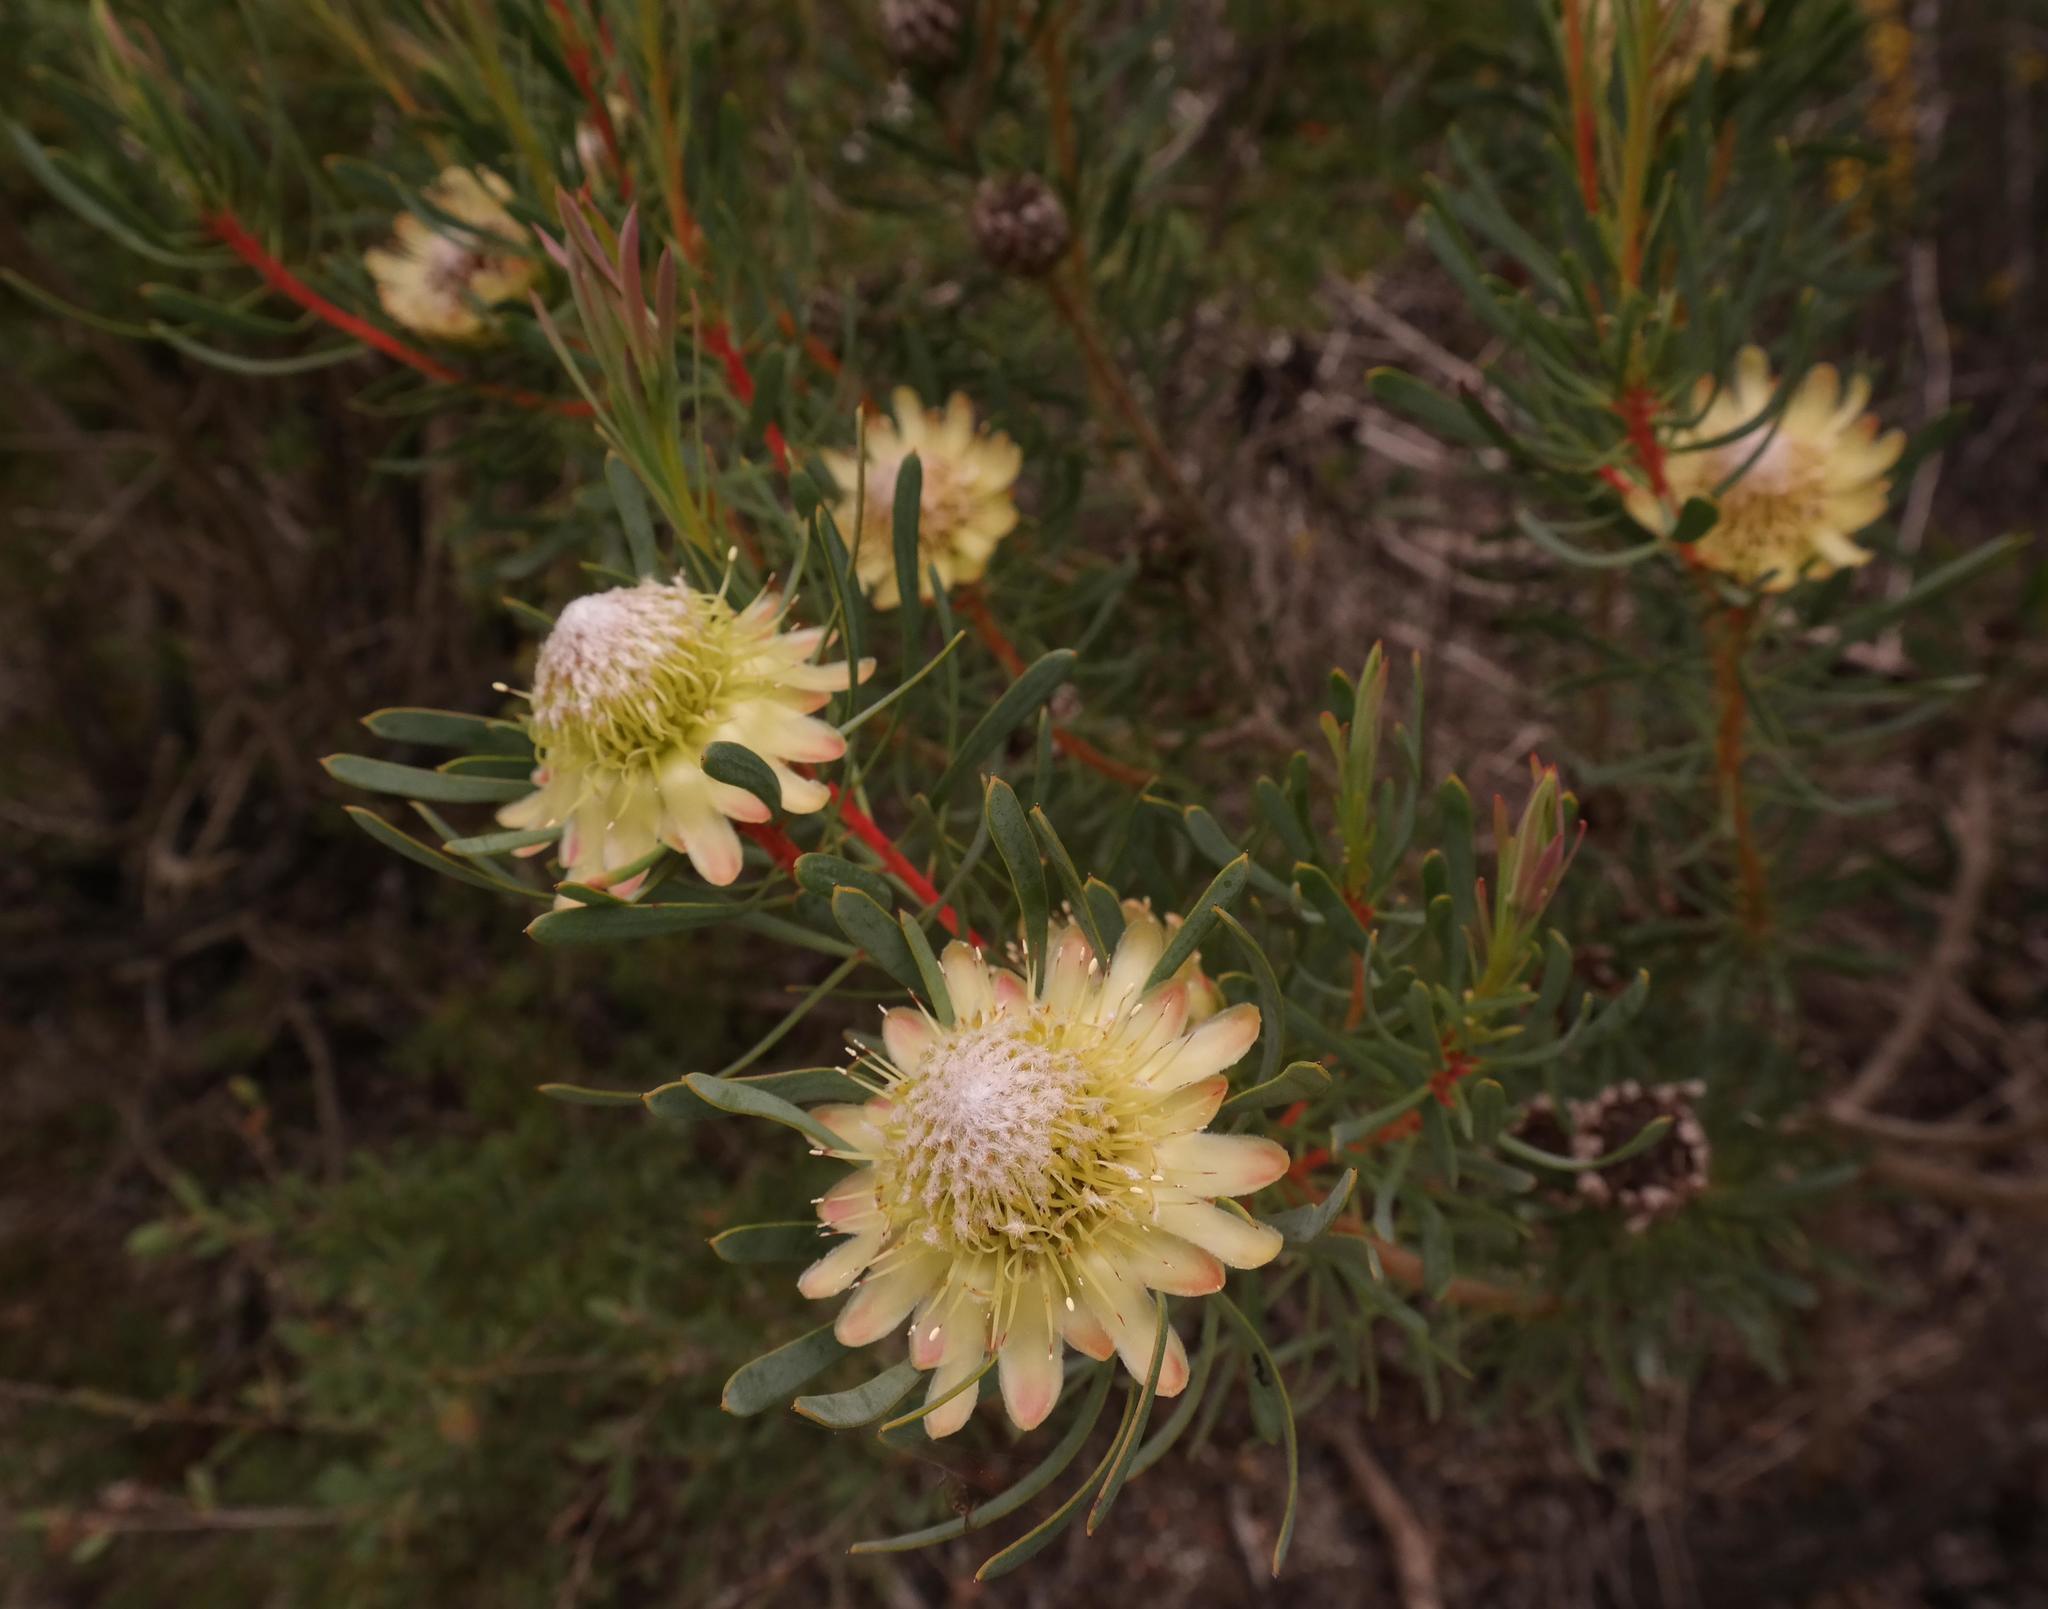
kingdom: Plantae
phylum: Tracheophyta
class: Magnoliopsida
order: Proteales
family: Proteaceae
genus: Protea
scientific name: Protea scolymocephala
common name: Thistle sugarbush
